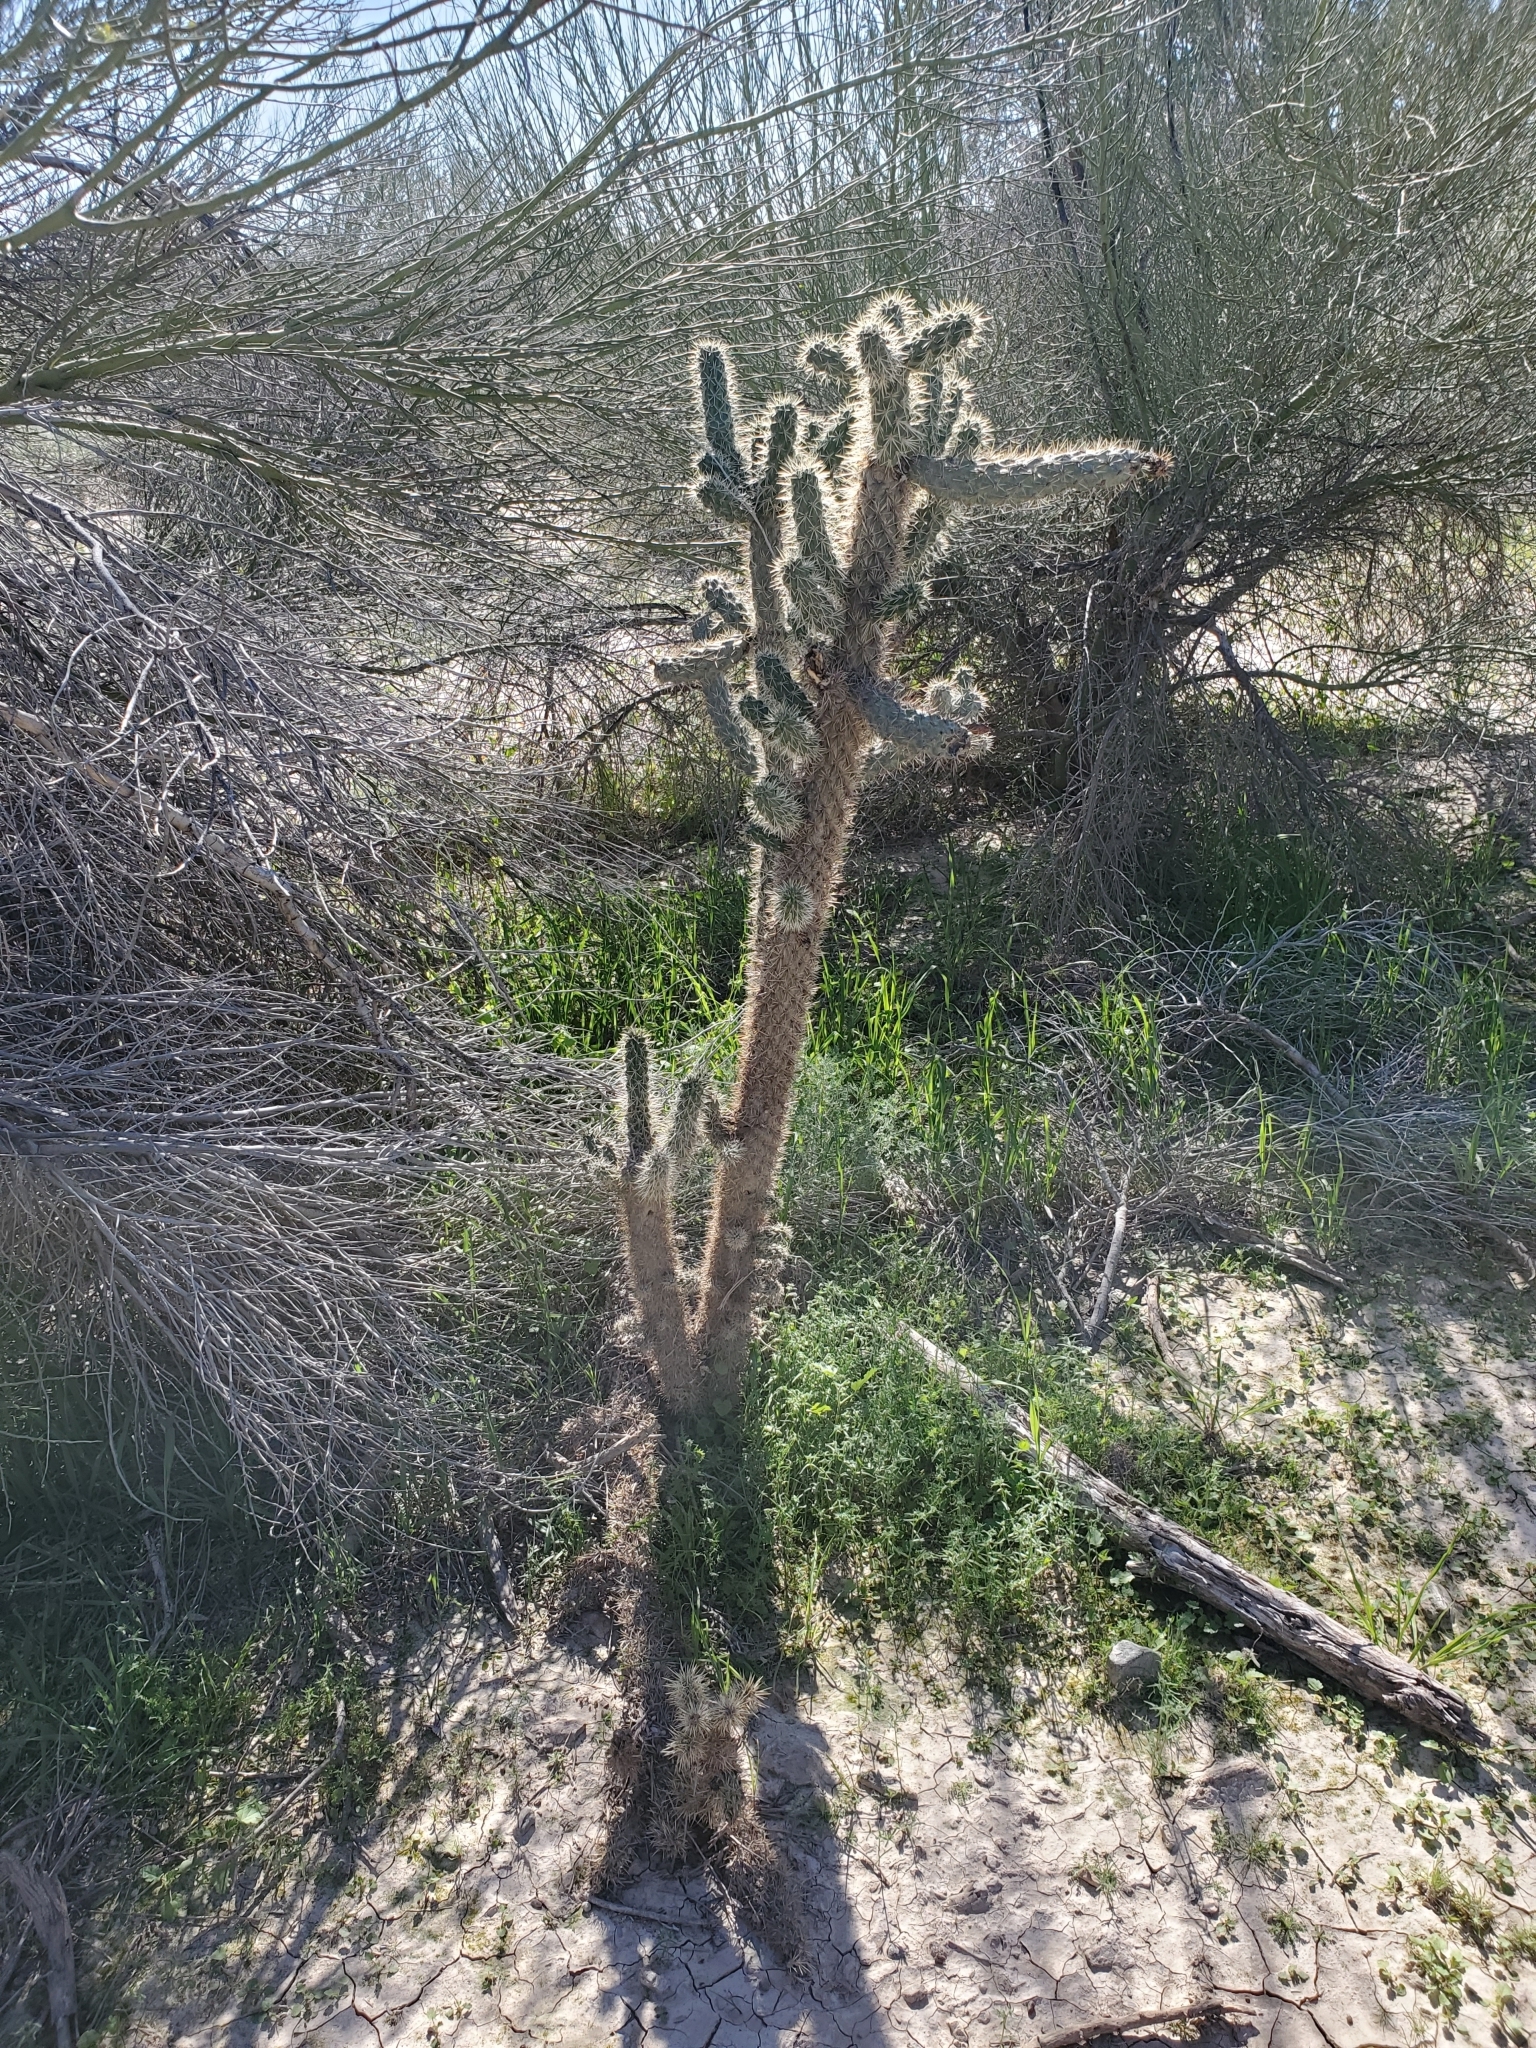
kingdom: Plantae
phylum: Tracheophyta
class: Magnoliopsida
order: Caryophyllales
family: Cactaceae
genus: Cylindropuntia
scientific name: Cylindropuntia munzii
